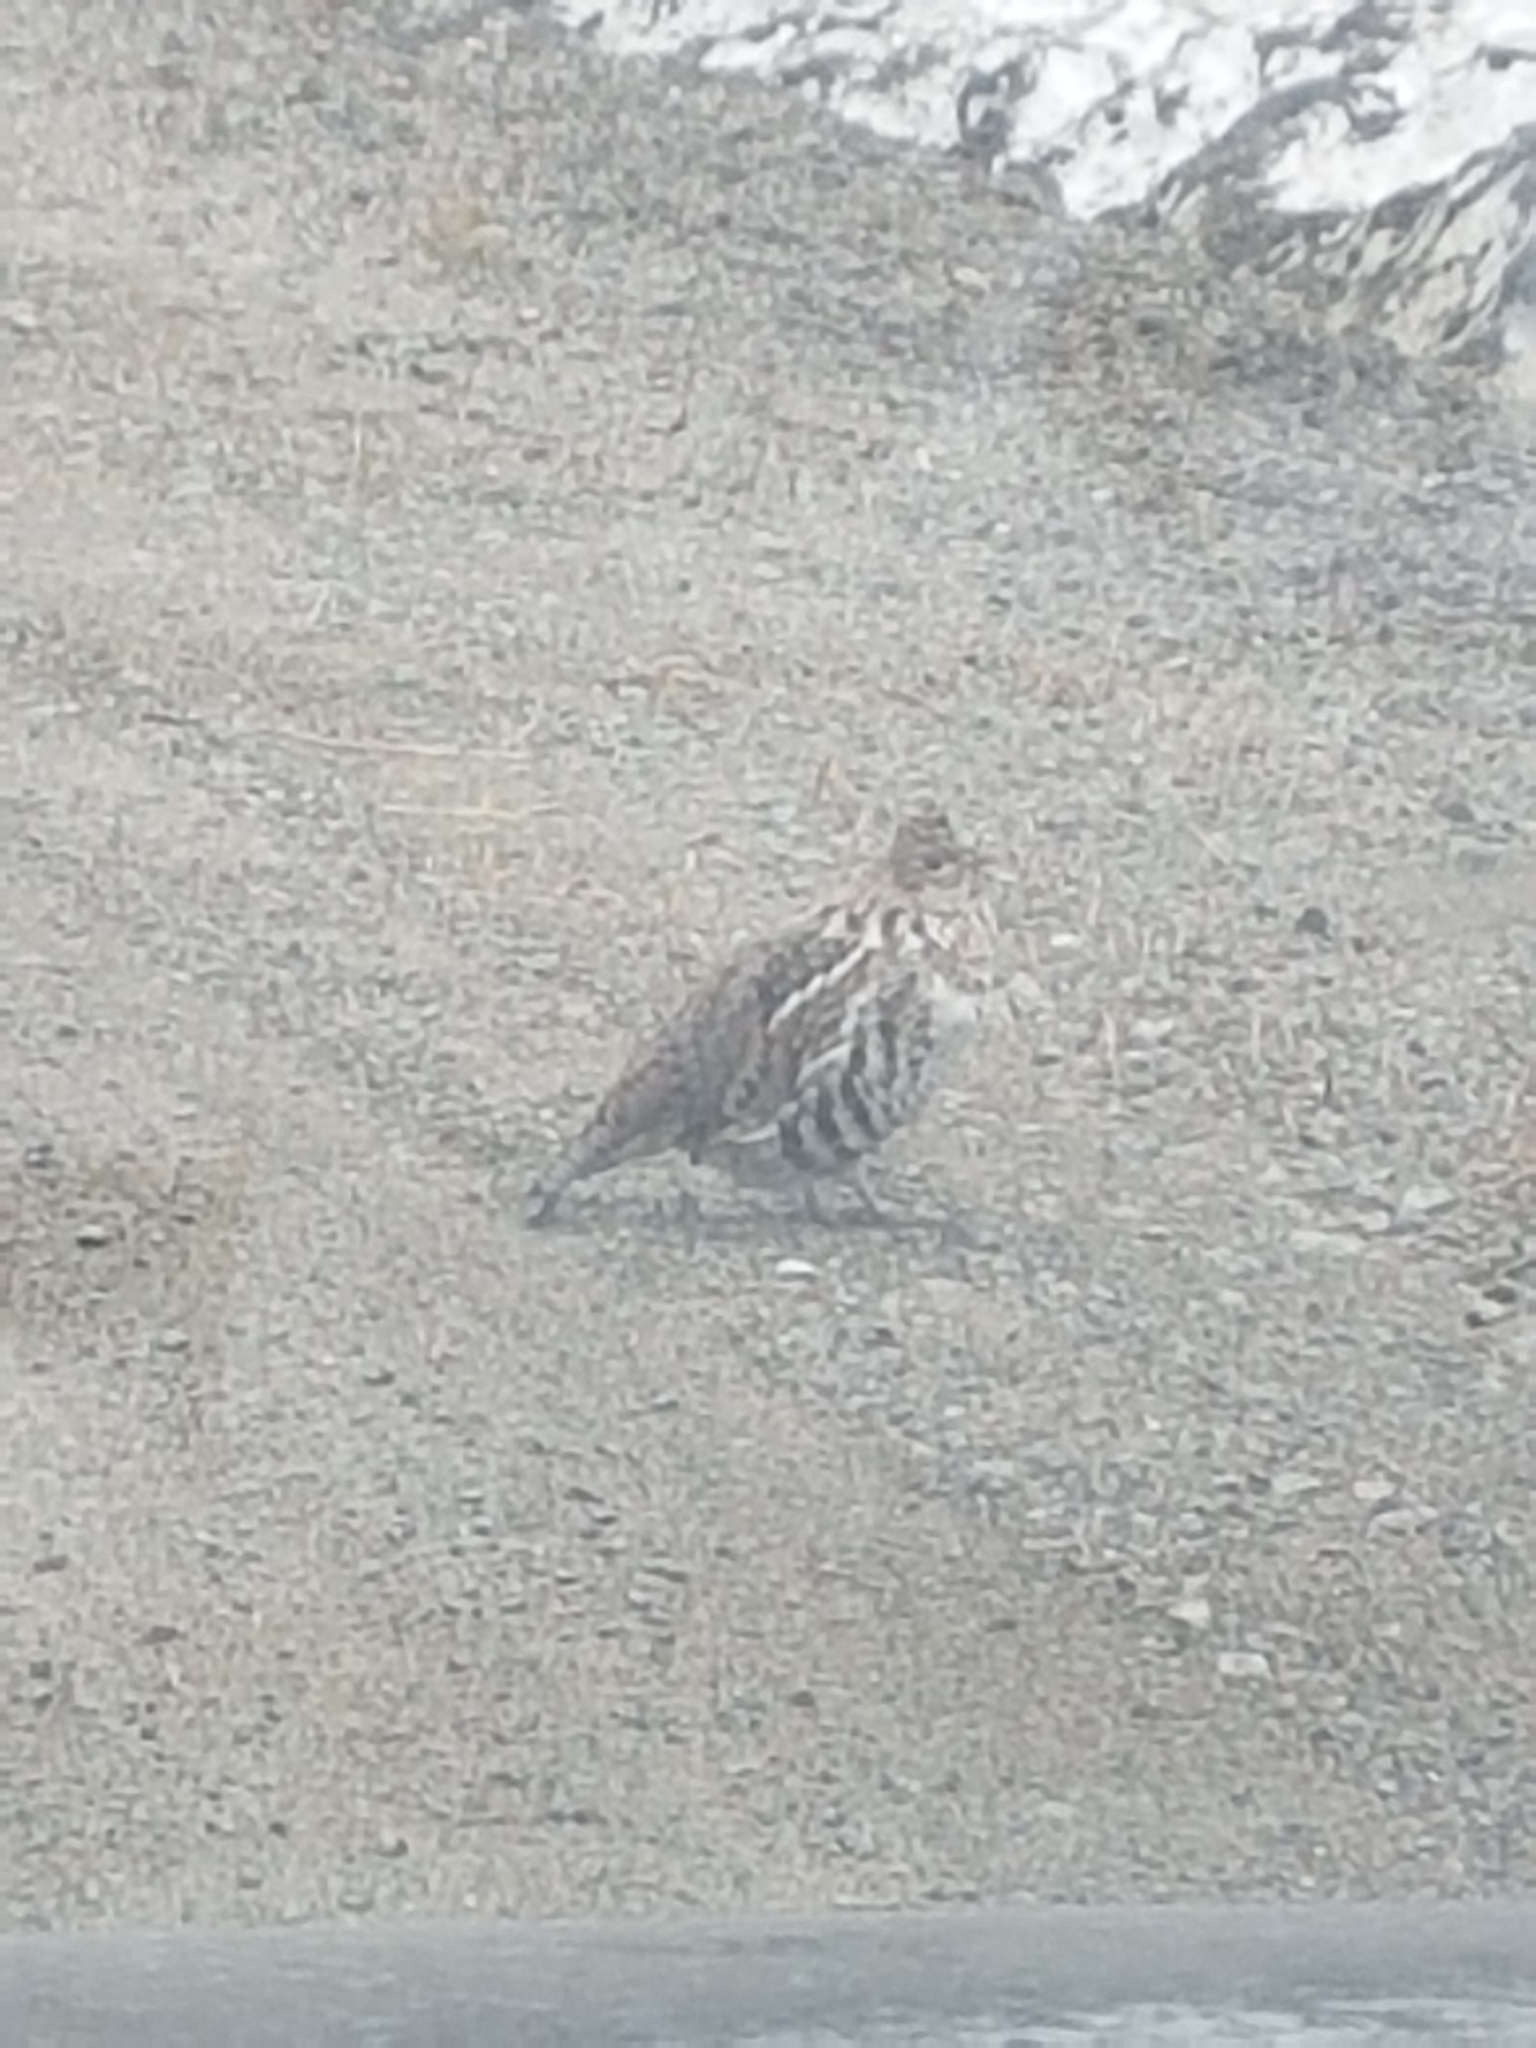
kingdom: Animalia
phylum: Chordata
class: Aves
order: Galliformes
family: Phasianidae
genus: Bonasa
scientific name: Bonasa umbellus
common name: Ruffed grouse
